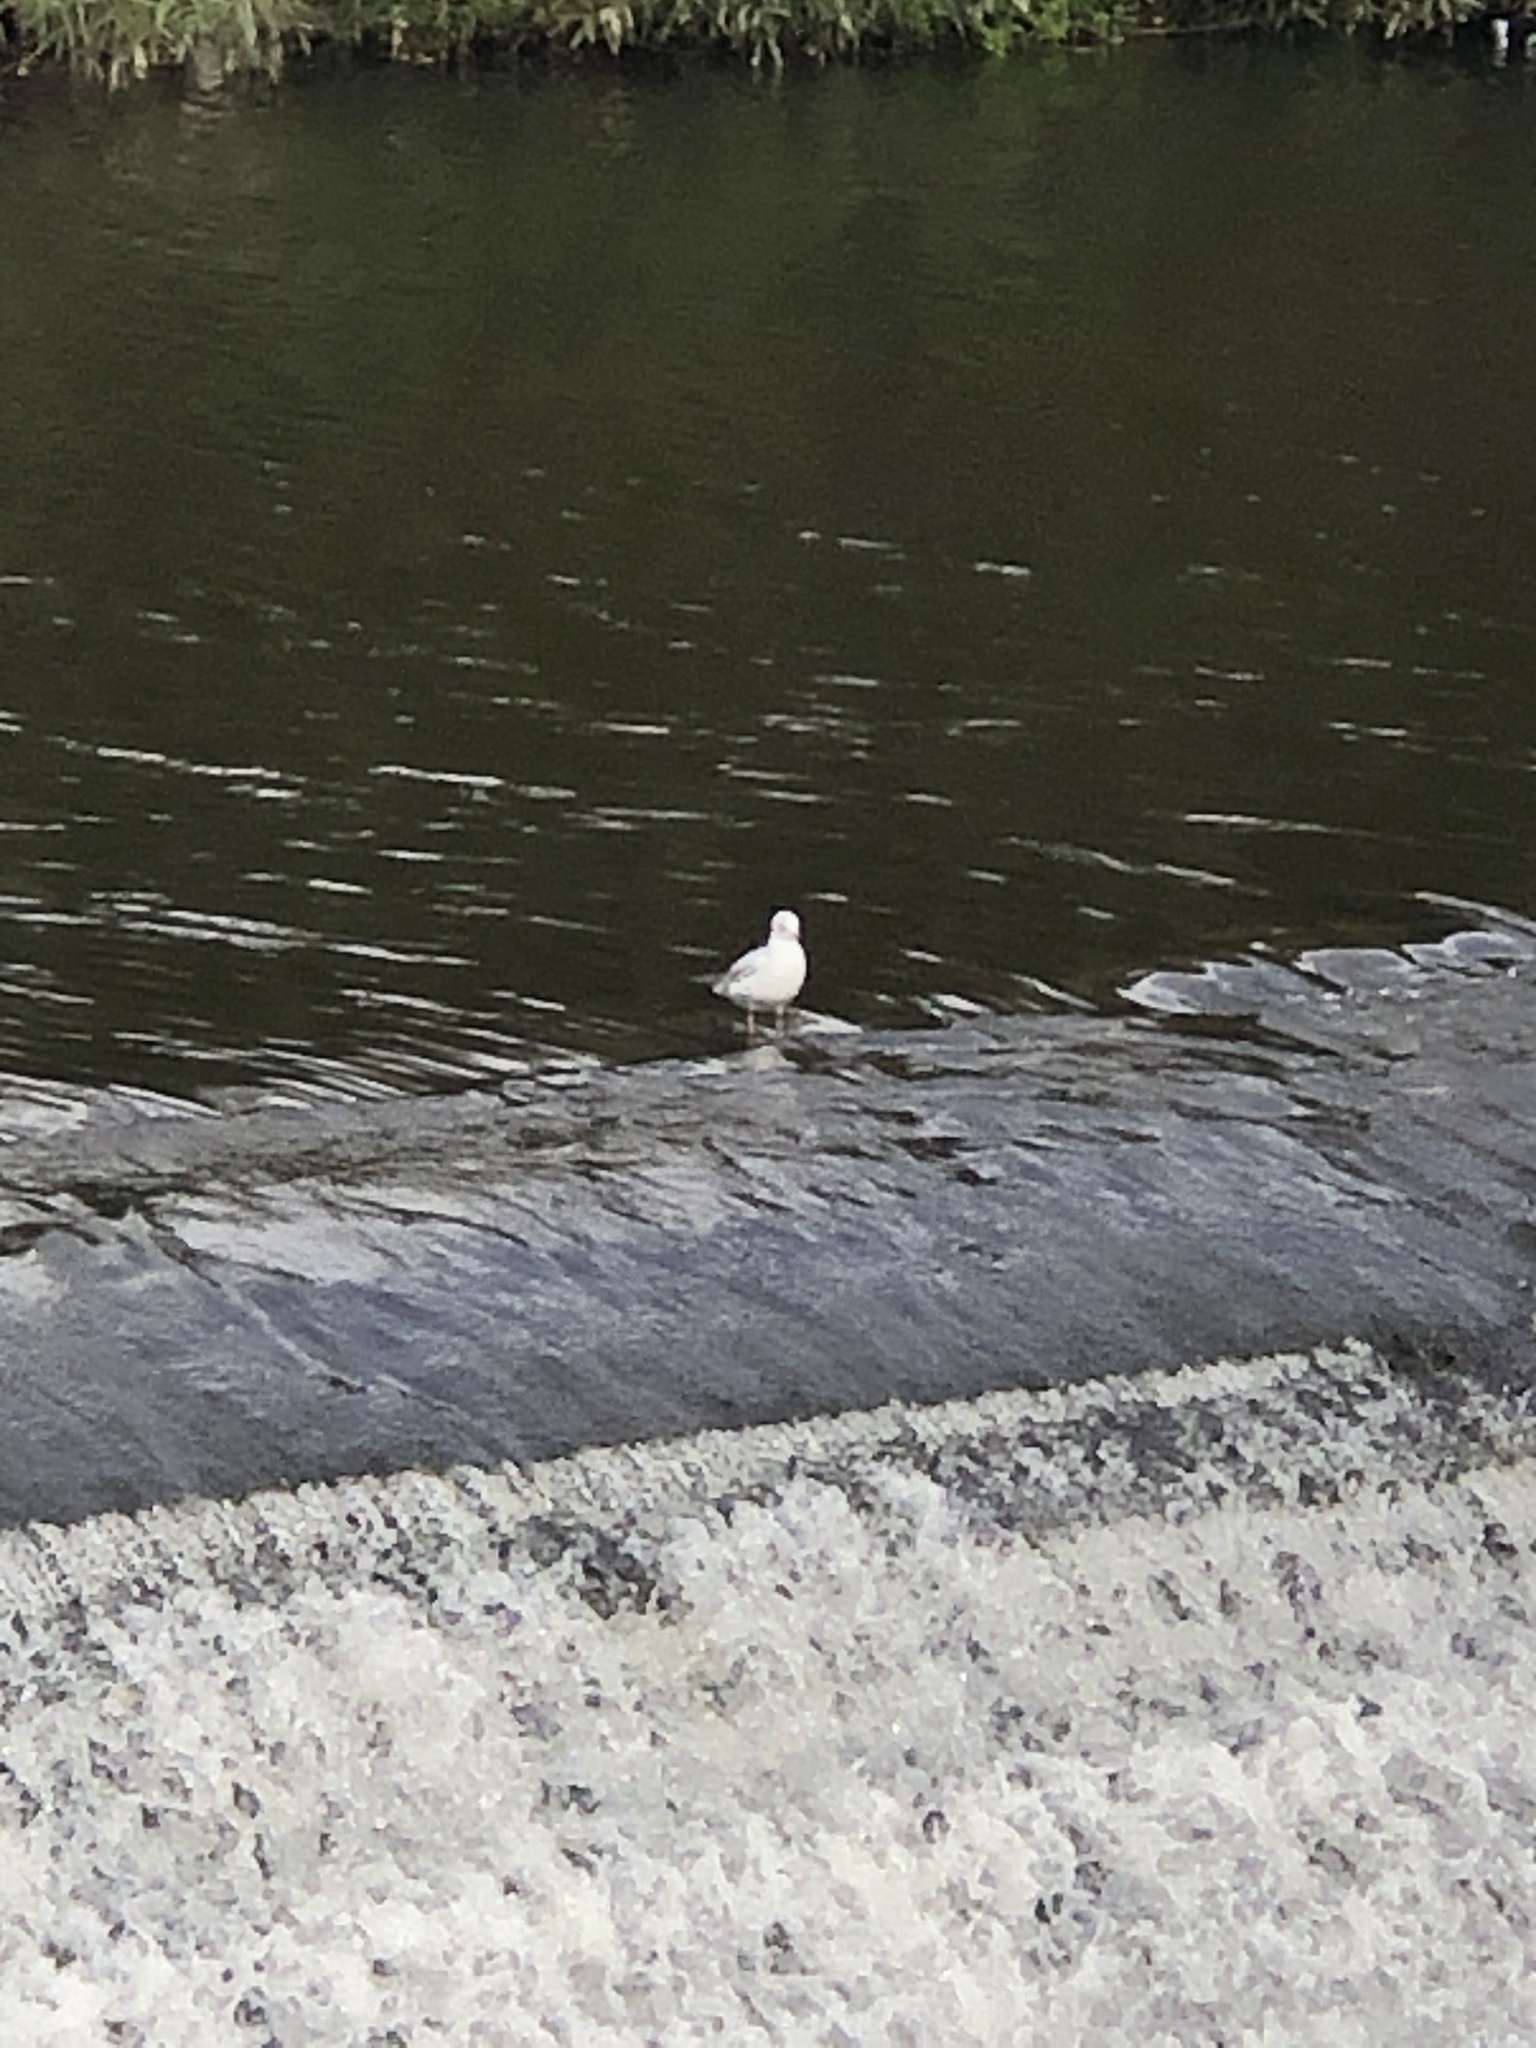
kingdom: Animalia
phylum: Chordata
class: Aves
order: Charadriiformes
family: Laridae
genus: Chroicocephalus
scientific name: Chroicocephalus ridibundus
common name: Black-headed gull
